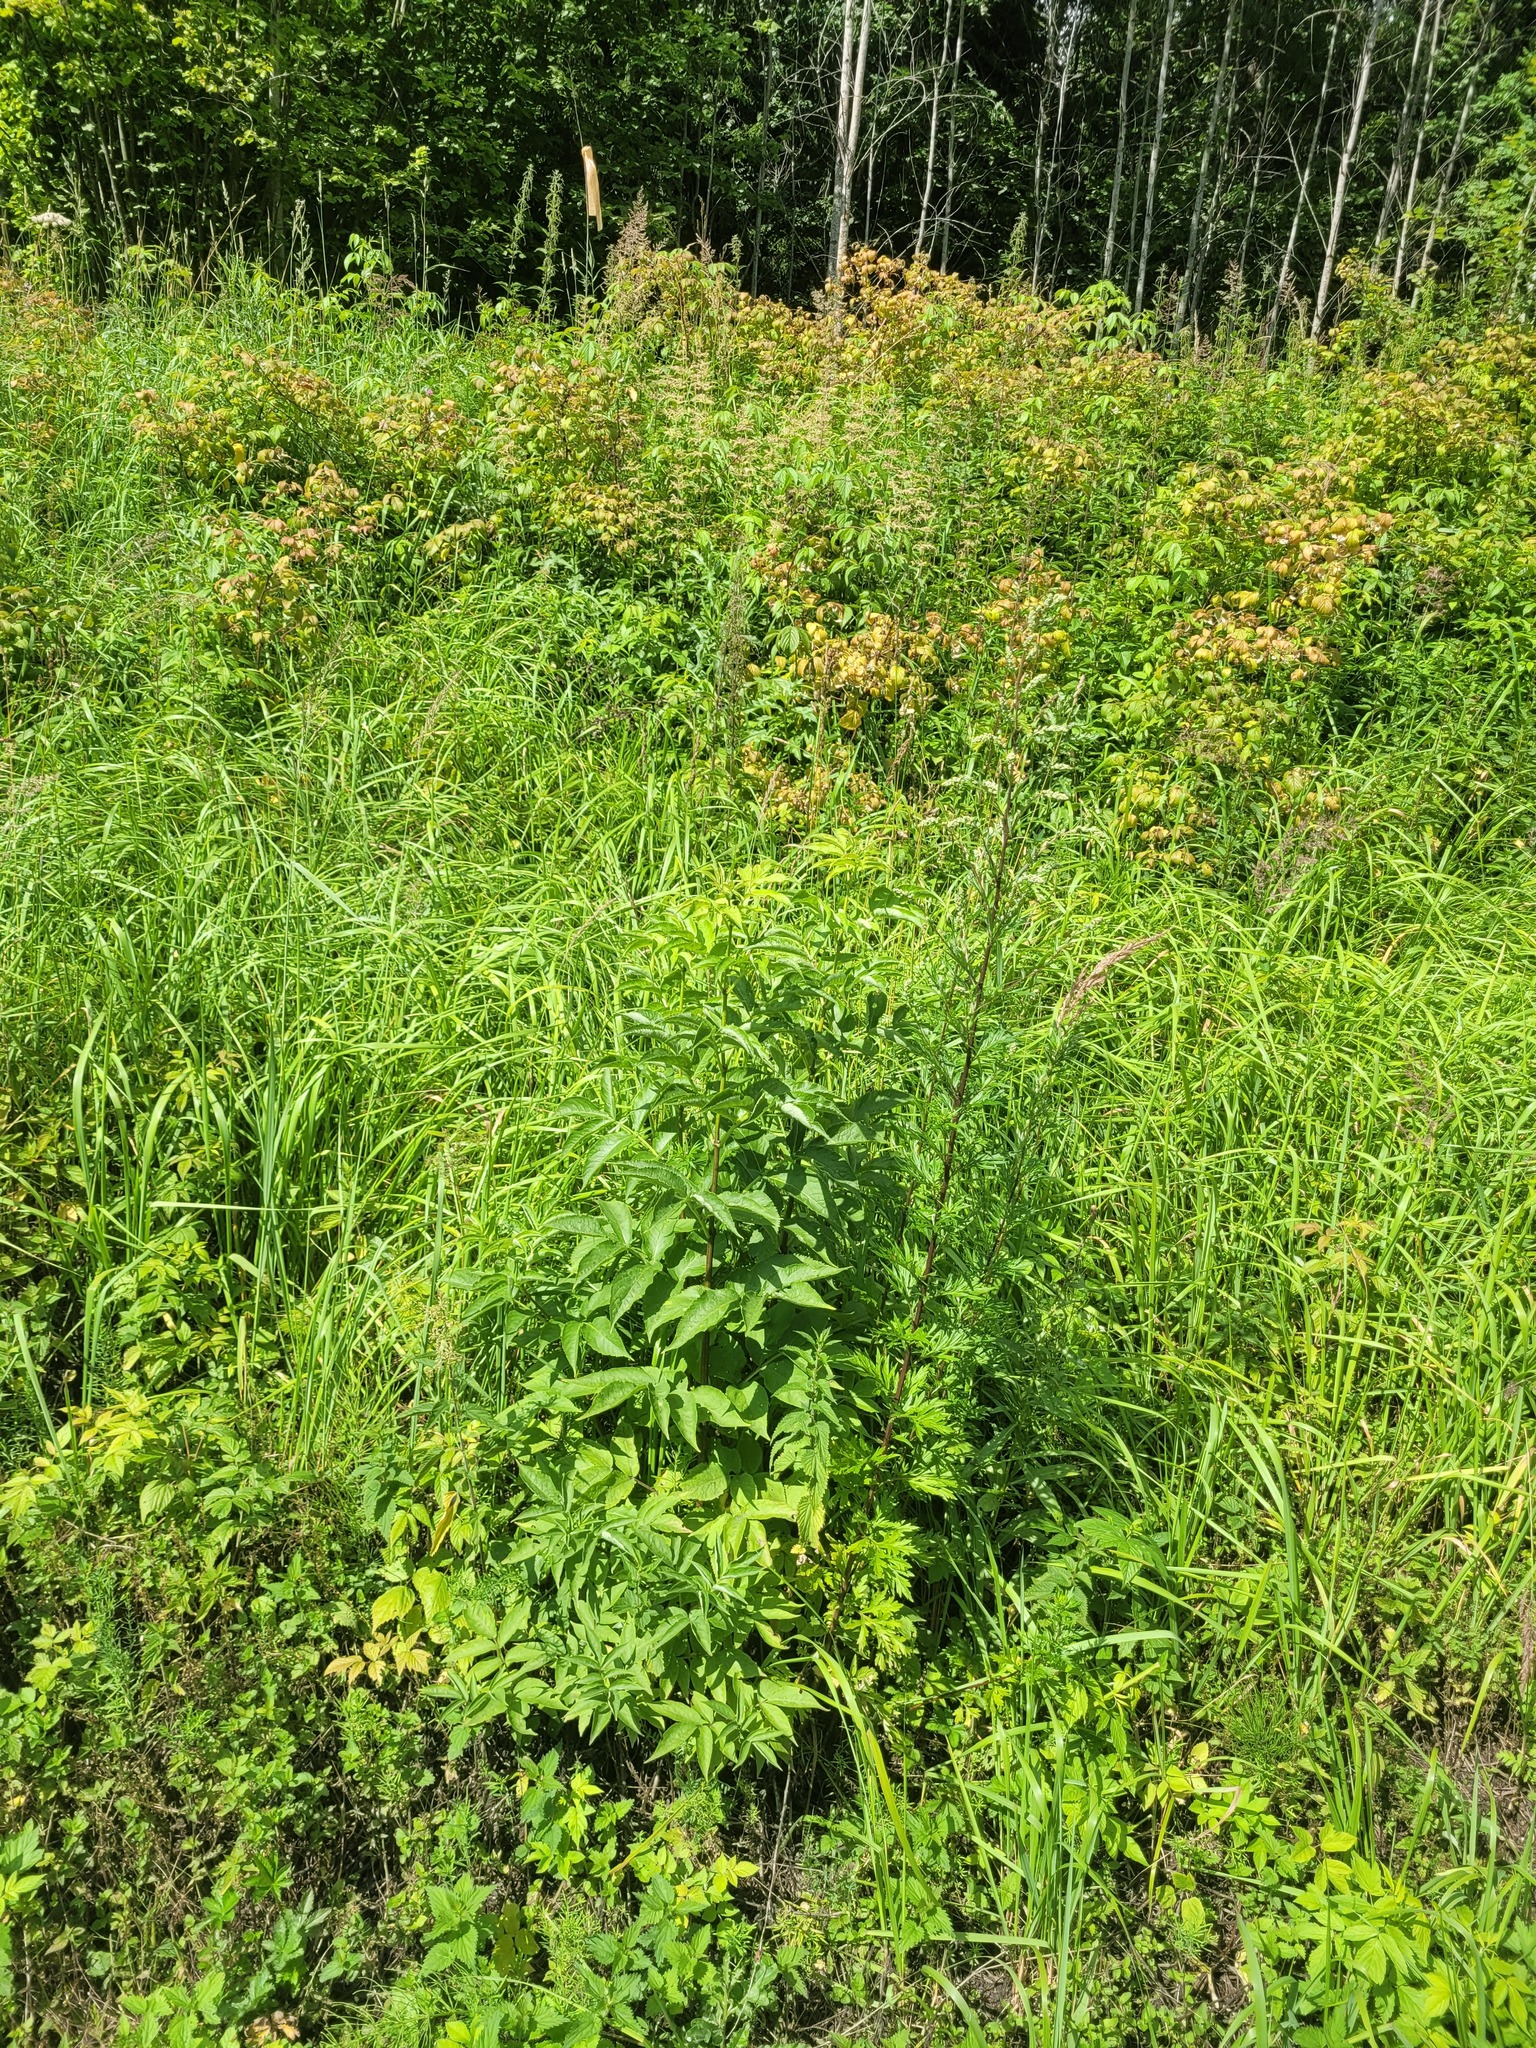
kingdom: Plantae
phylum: Tracheophyta
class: Magnoliopsida
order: Dipsacales
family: Viburnaceae
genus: Sambucus
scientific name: Sambucus racemosa
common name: Red-berried elder
